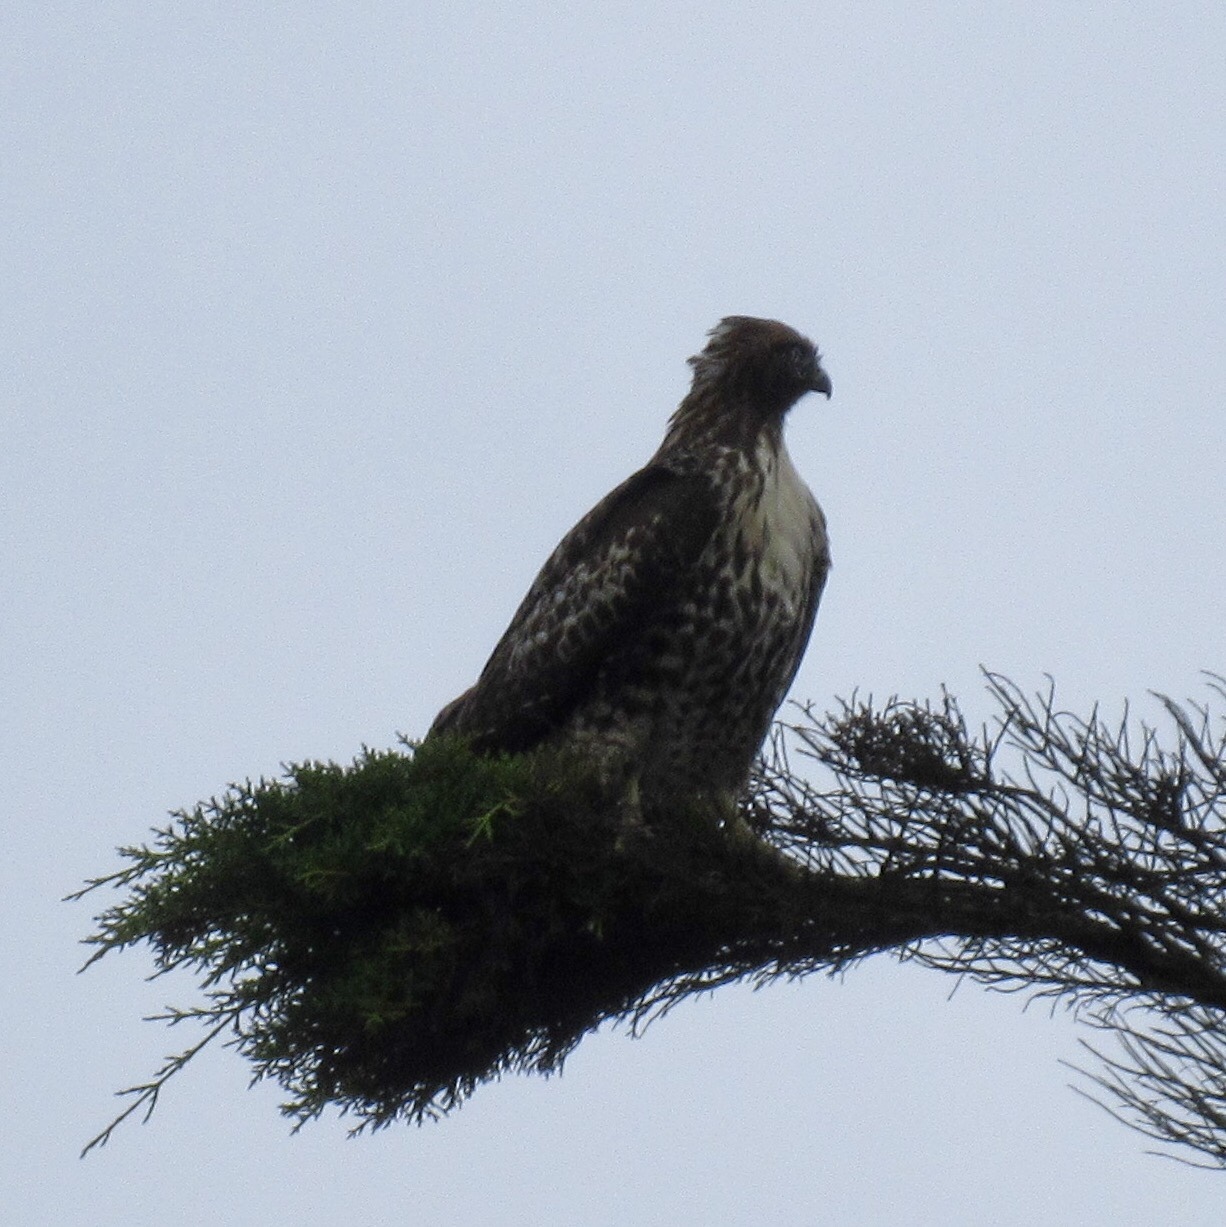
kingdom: Animalia
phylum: Chordata
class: Aves
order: Accipitriformes
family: Accipitridae
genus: Buteo
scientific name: Buteo jamaicensis
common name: Red-tailed hawk
